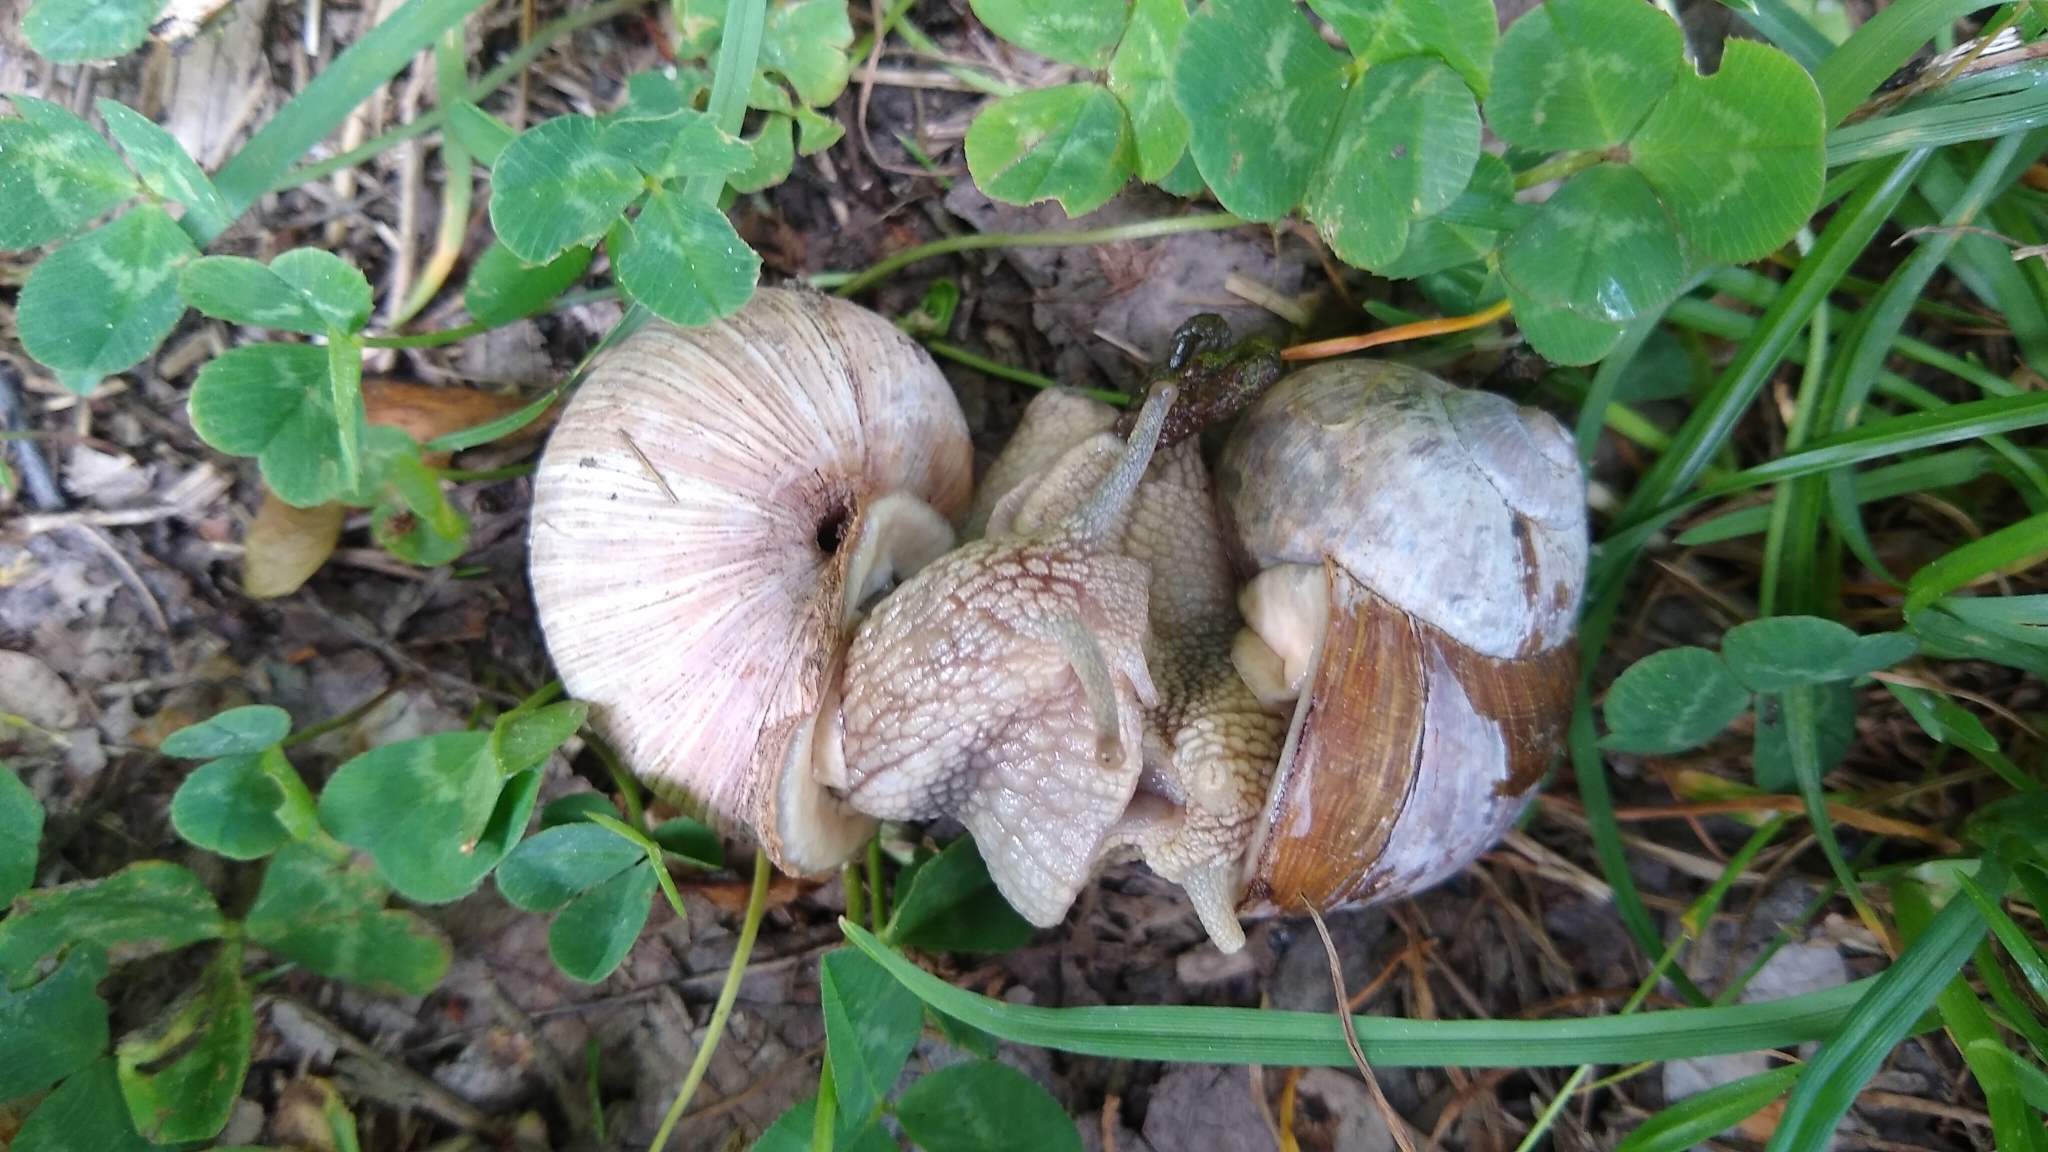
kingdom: Animalia
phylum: Mollusca
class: Gastropoda
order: Stylommatophora
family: Helicidae
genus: Helix
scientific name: Helix pomatia
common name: Roman snail
